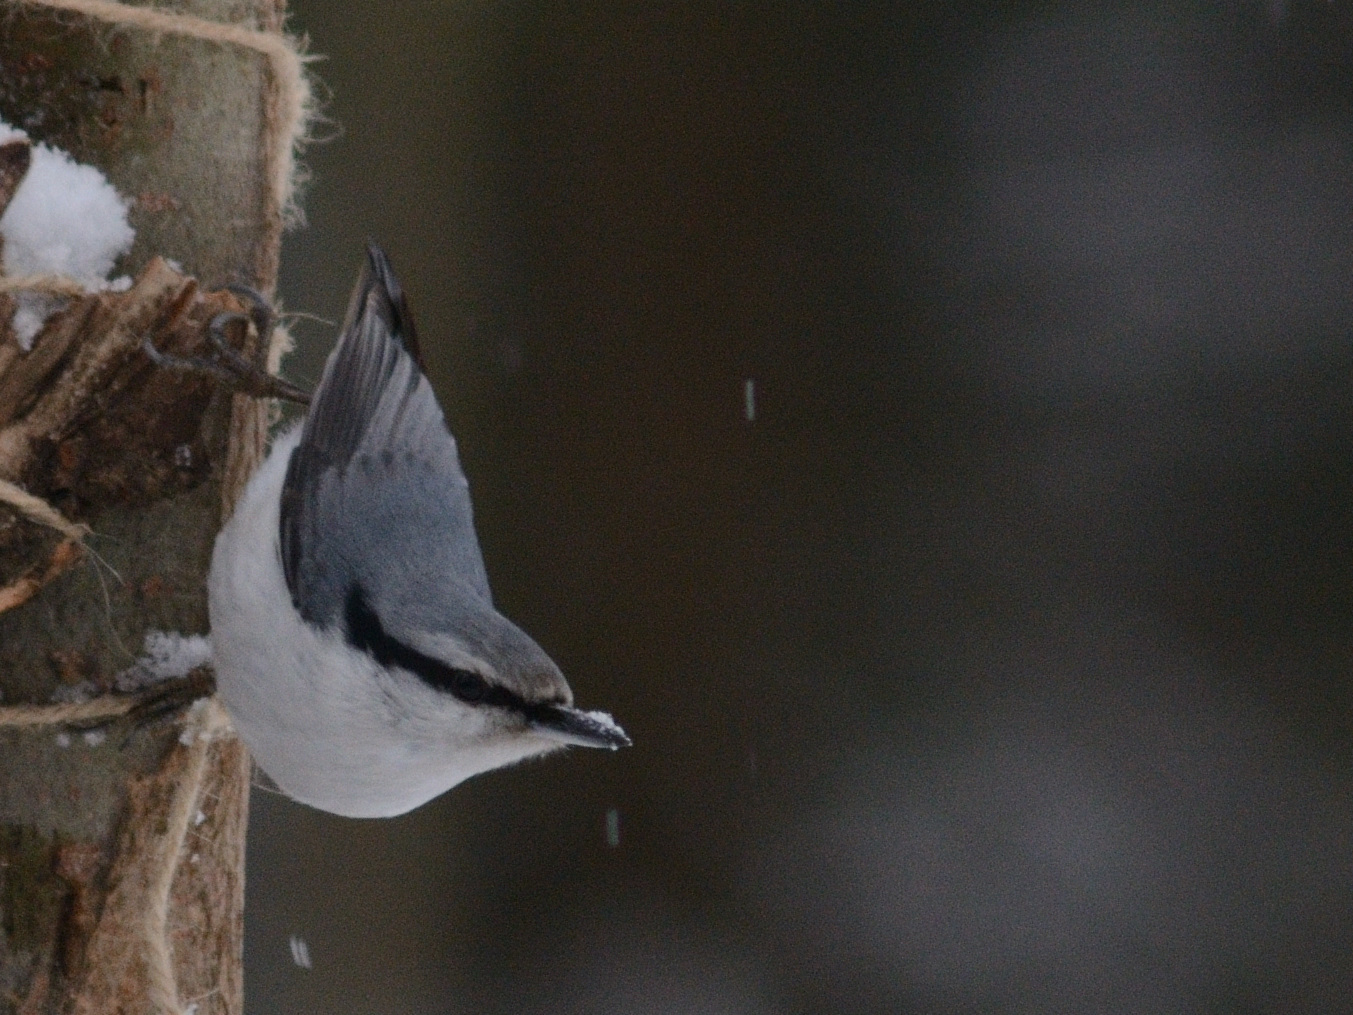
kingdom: Animalia
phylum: Chordata
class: Aves
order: Passeriformes
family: Sittidae
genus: Sitta
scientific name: Sitta europaea
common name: Eurasian nuthatch
